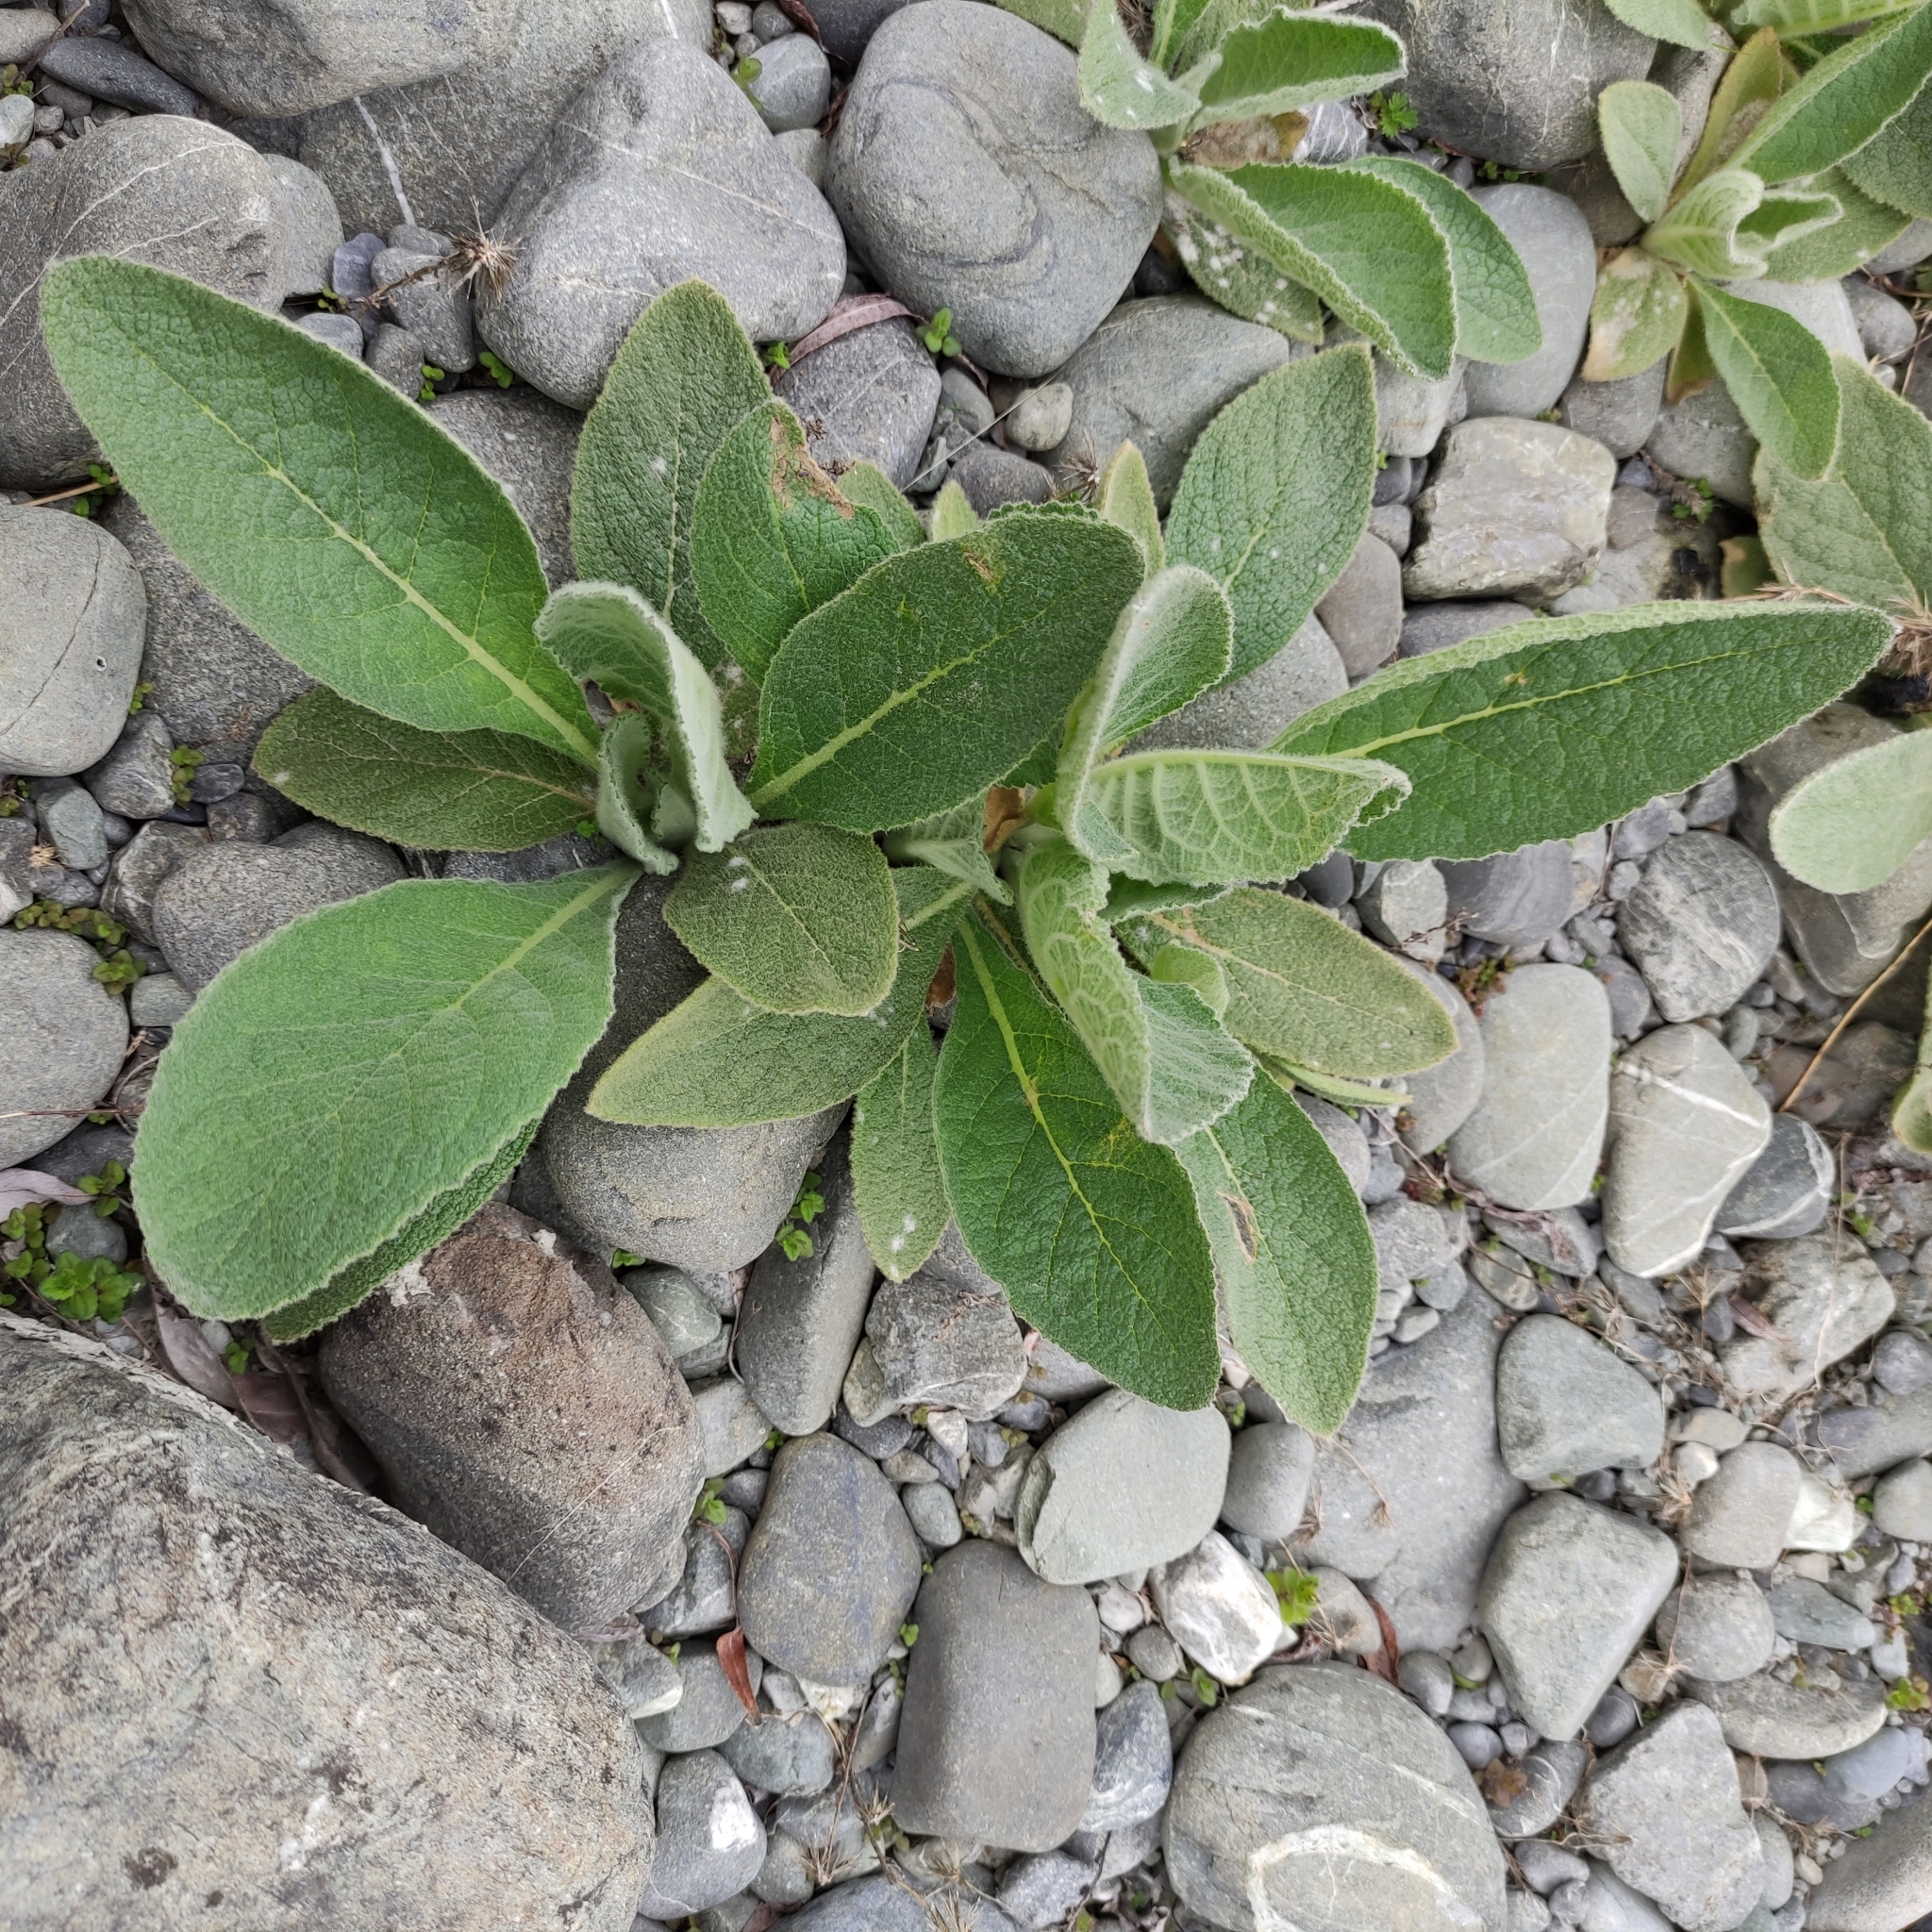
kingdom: Plantae
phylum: Tracheophyta
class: Magnoliopsida
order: Lamiales
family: Scrophulariaceae
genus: Verbascum
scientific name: Verbascum thapsus
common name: Common mullein
